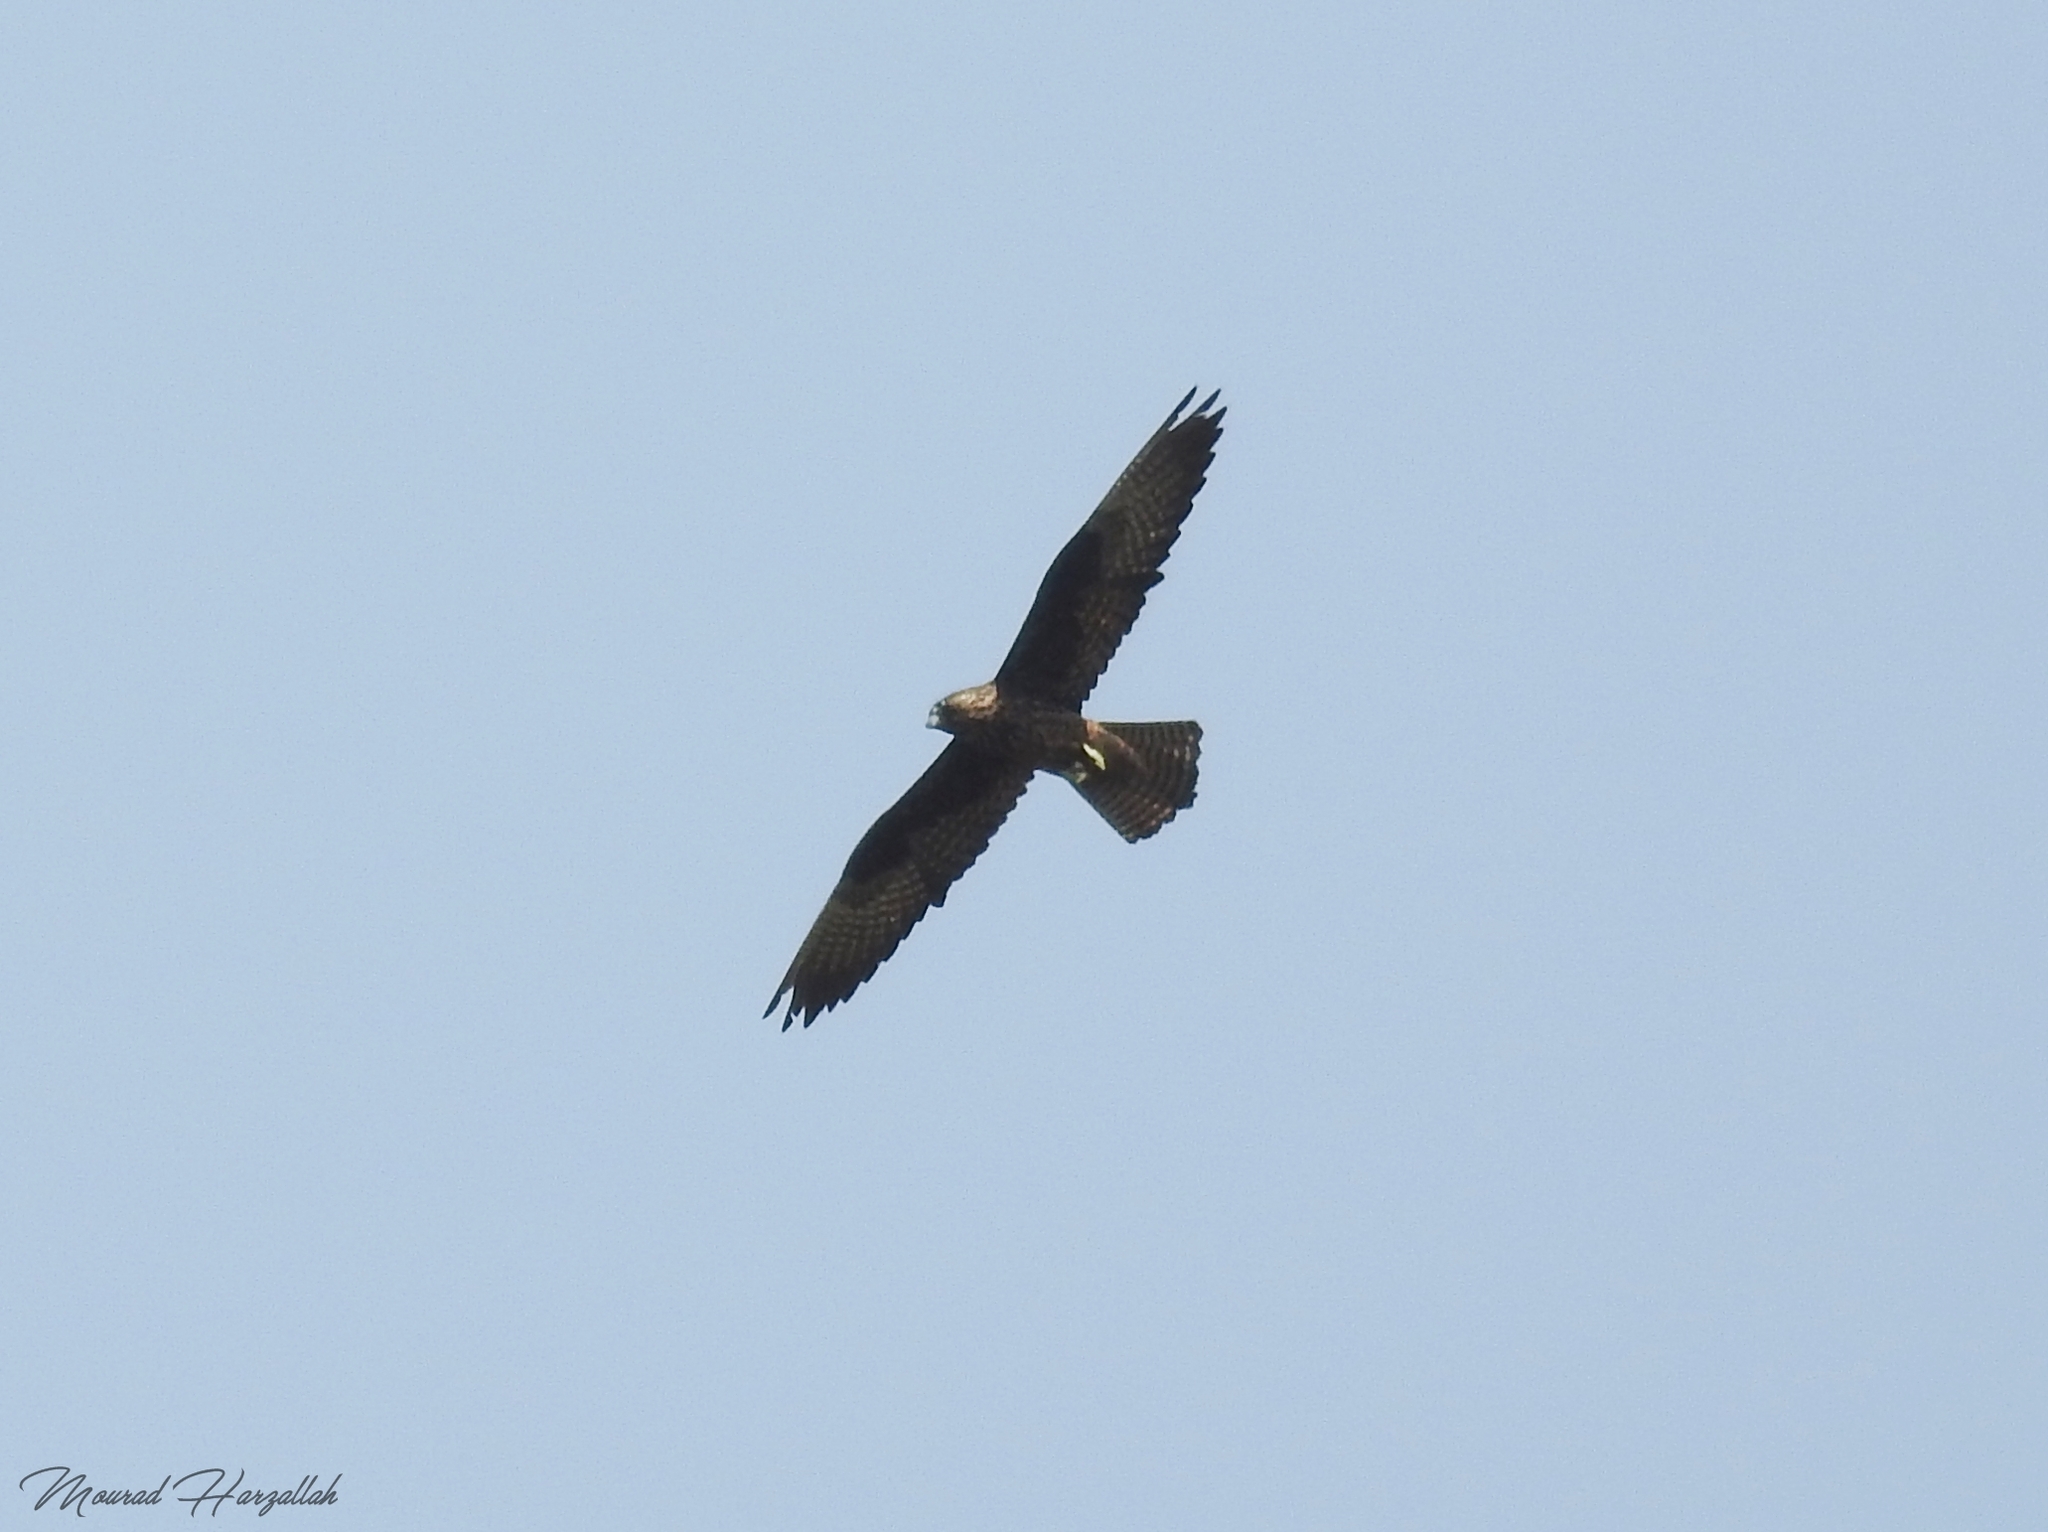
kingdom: Animalia
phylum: Chordata
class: Aves
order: Falconiformes
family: Falconidae
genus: Falco
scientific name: Falco eleonorae
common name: Eleonora's falcon
